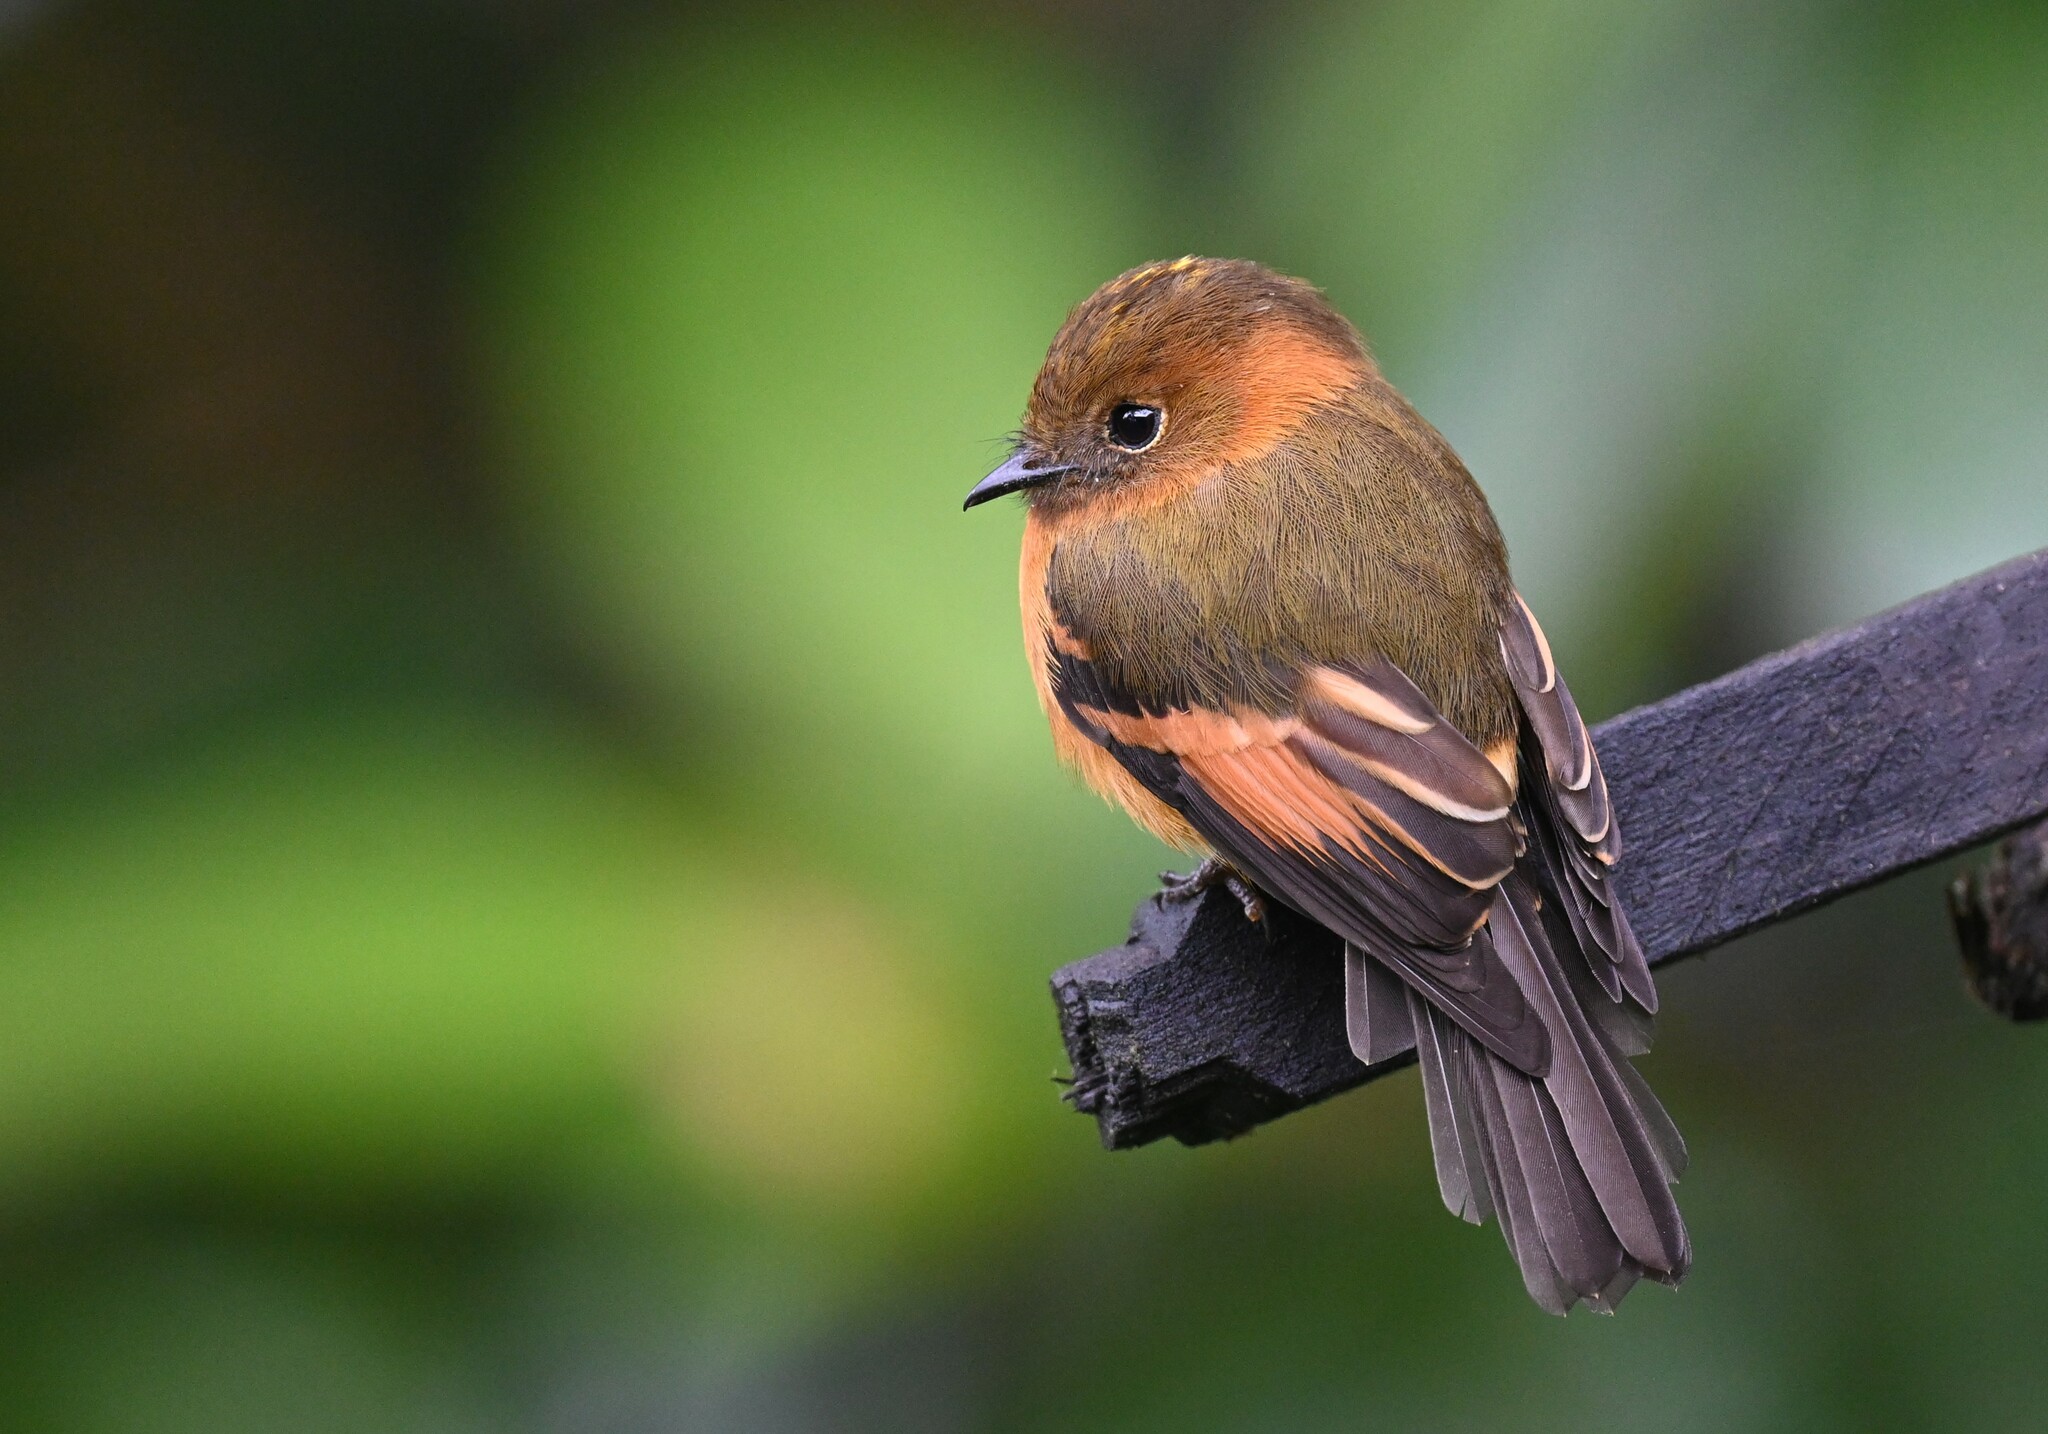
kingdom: Animalia
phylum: Chordata
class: Aves
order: Passeriformes
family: Tyrannidae
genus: Pyrrhomyias
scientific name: Pyrrhomyias cinnamomeus
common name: Cinnamon flycatcher
